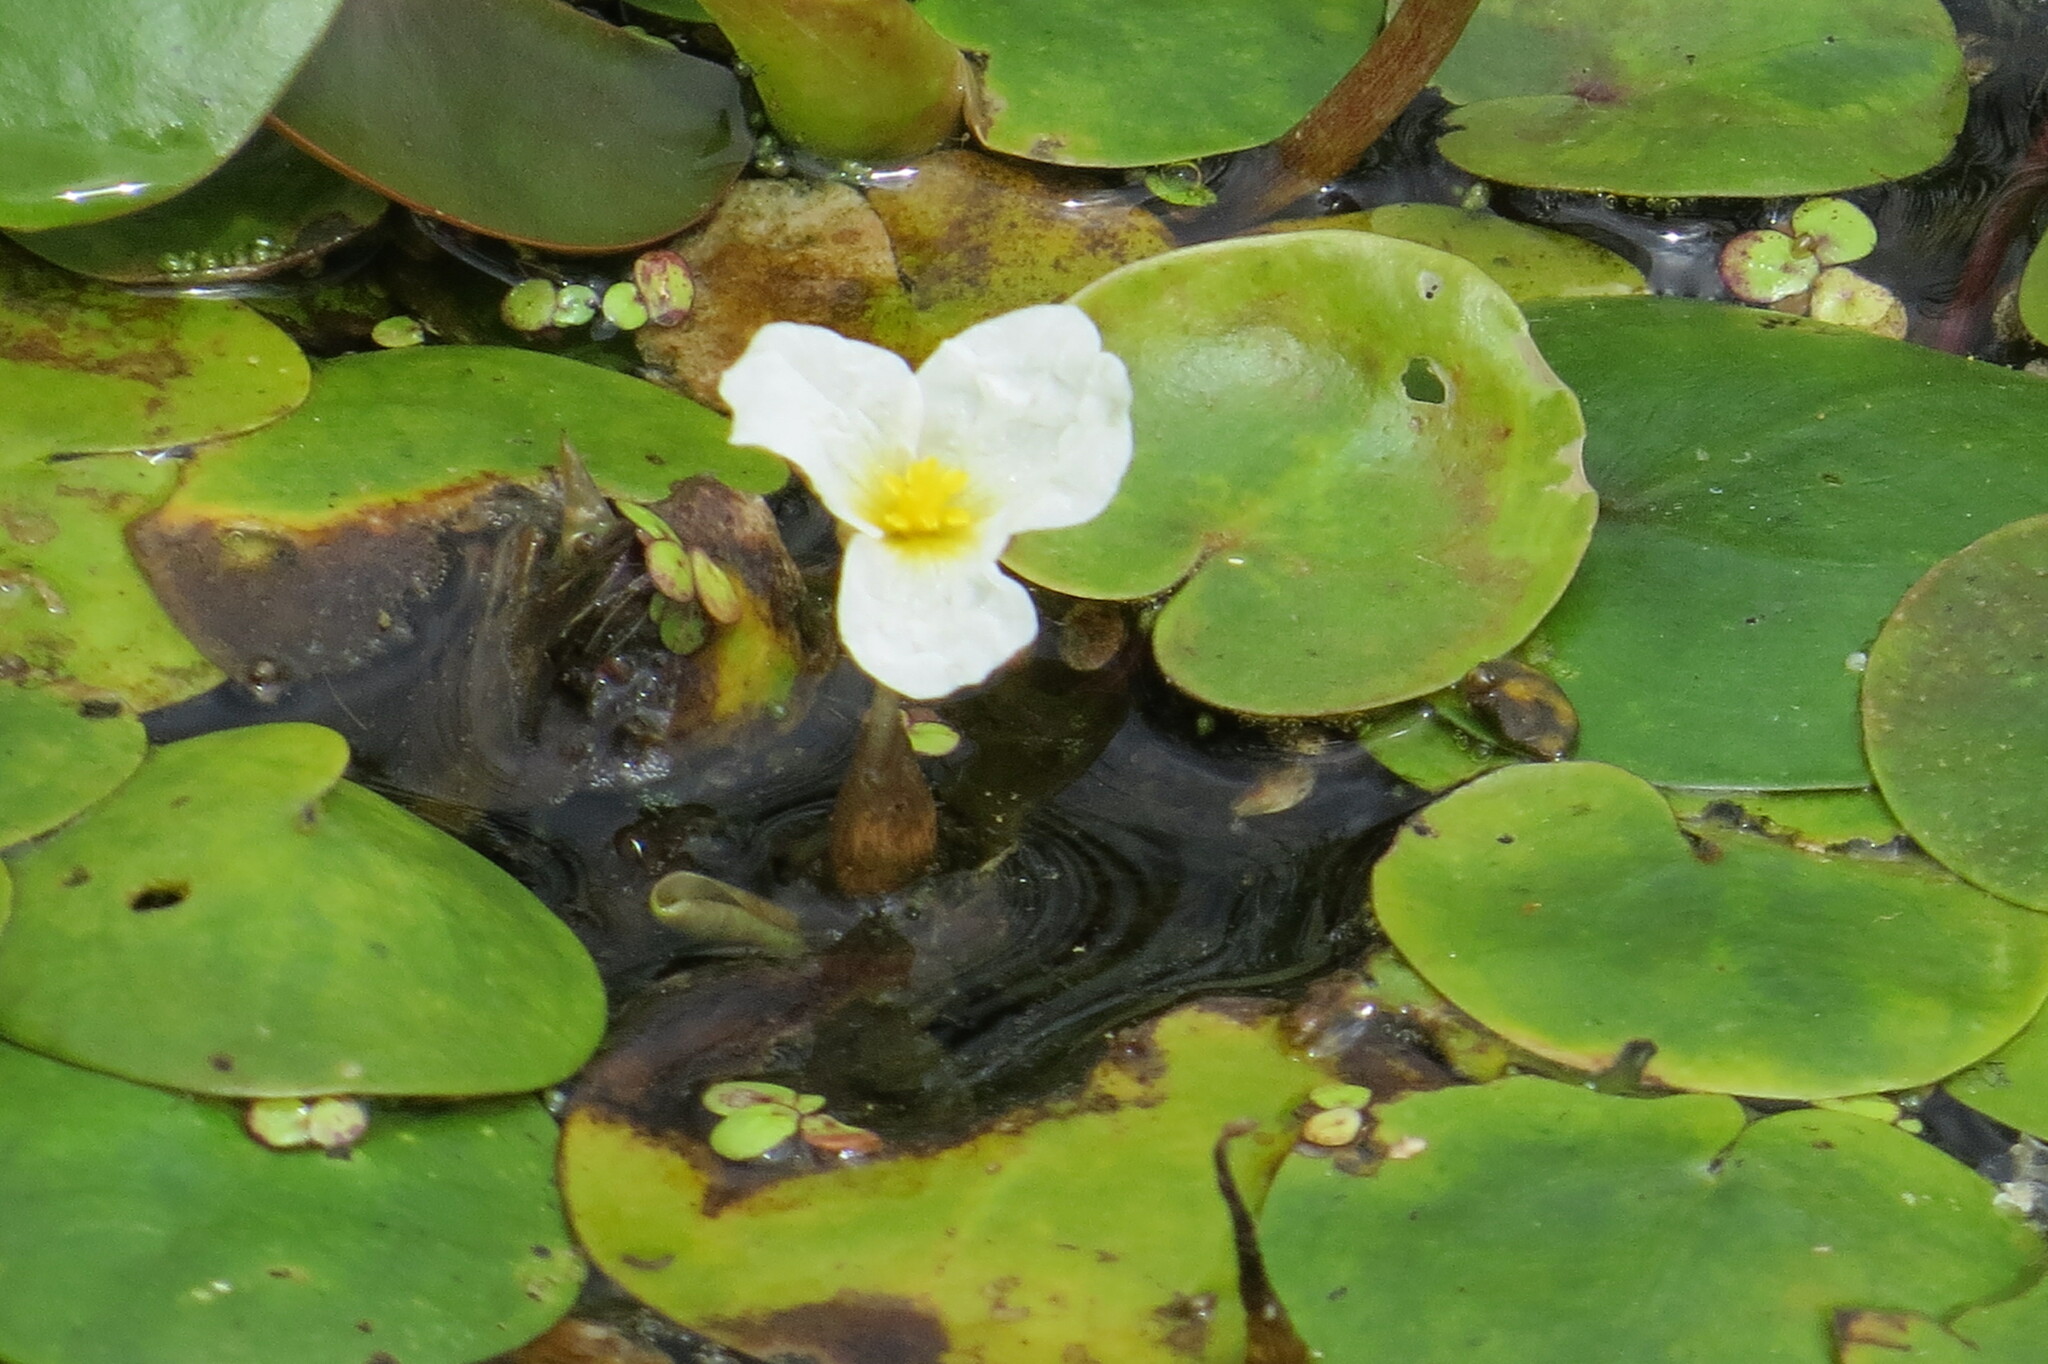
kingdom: Plantae
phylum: Tracheophyta
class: Liliopsida
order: Alismatales
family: Hydrocharitaceae
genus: Hydrocharis
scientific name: Hydrocharis morsus-ranae
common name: Frogbit
